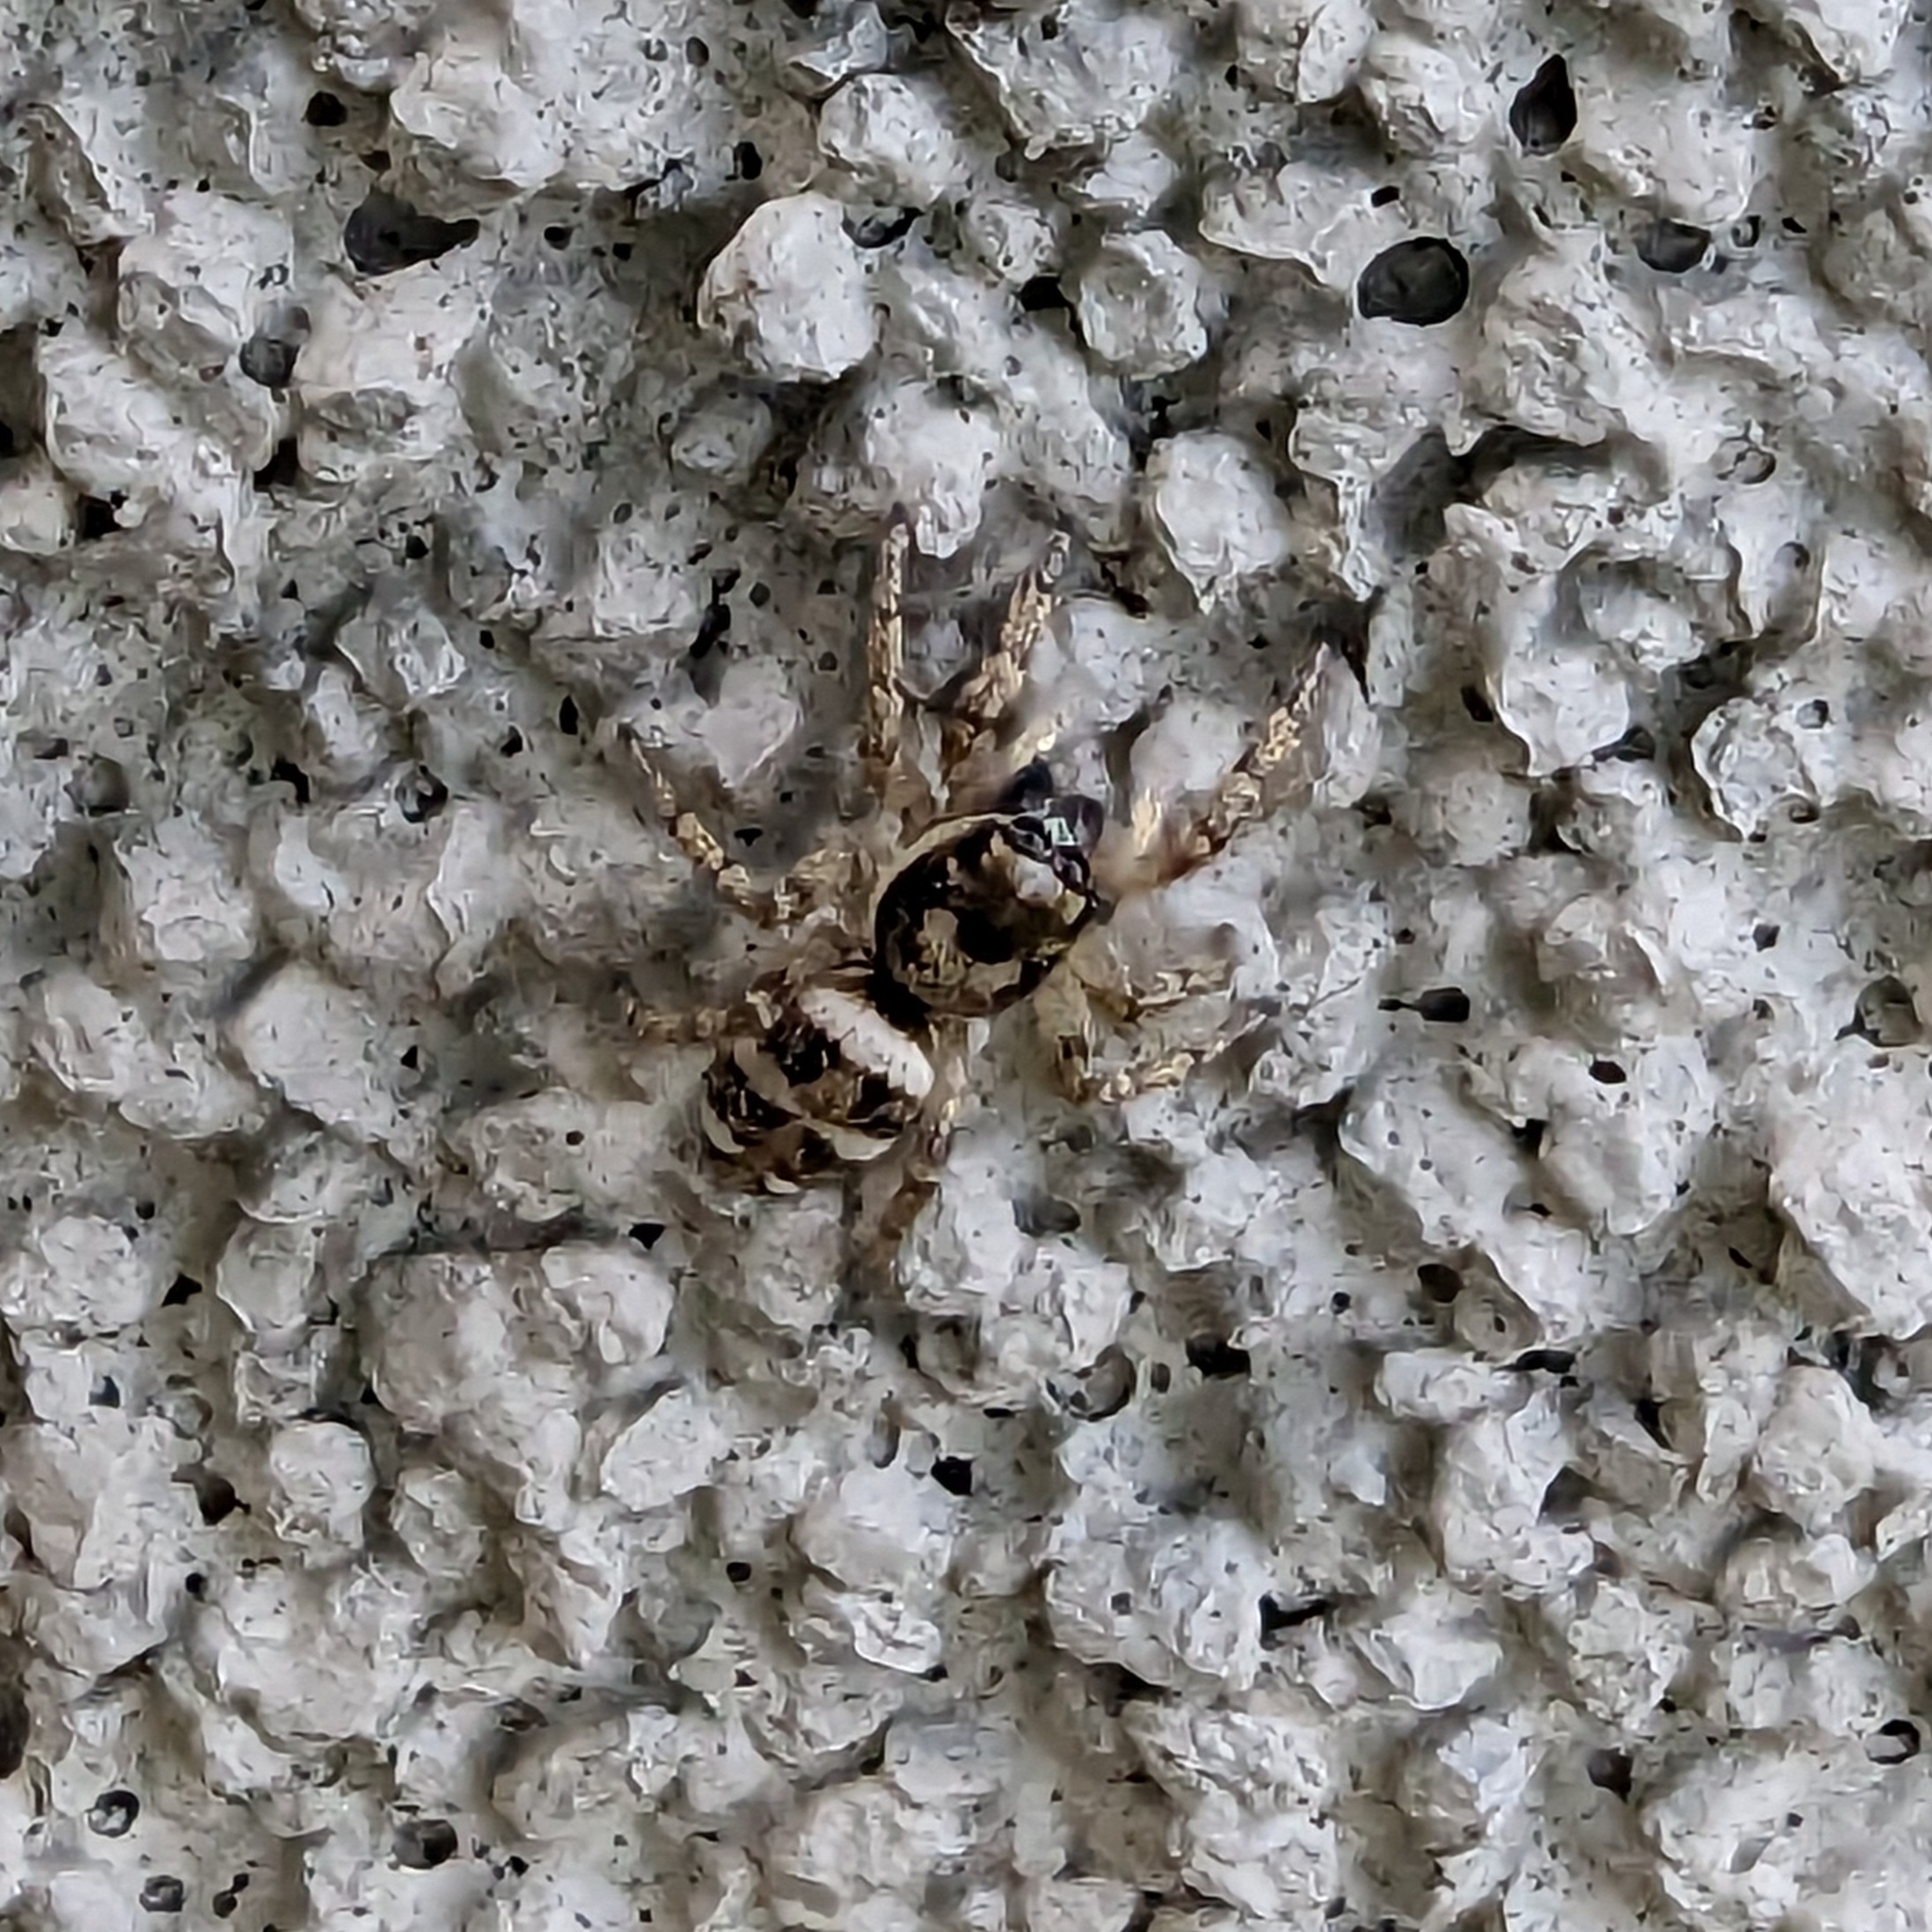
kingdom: Animalia
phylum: Arthropoda
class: Arachnida
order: Araneae
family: Salticidae
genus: Salticus
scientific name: Salticus scenicus
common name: Zebra jumper
